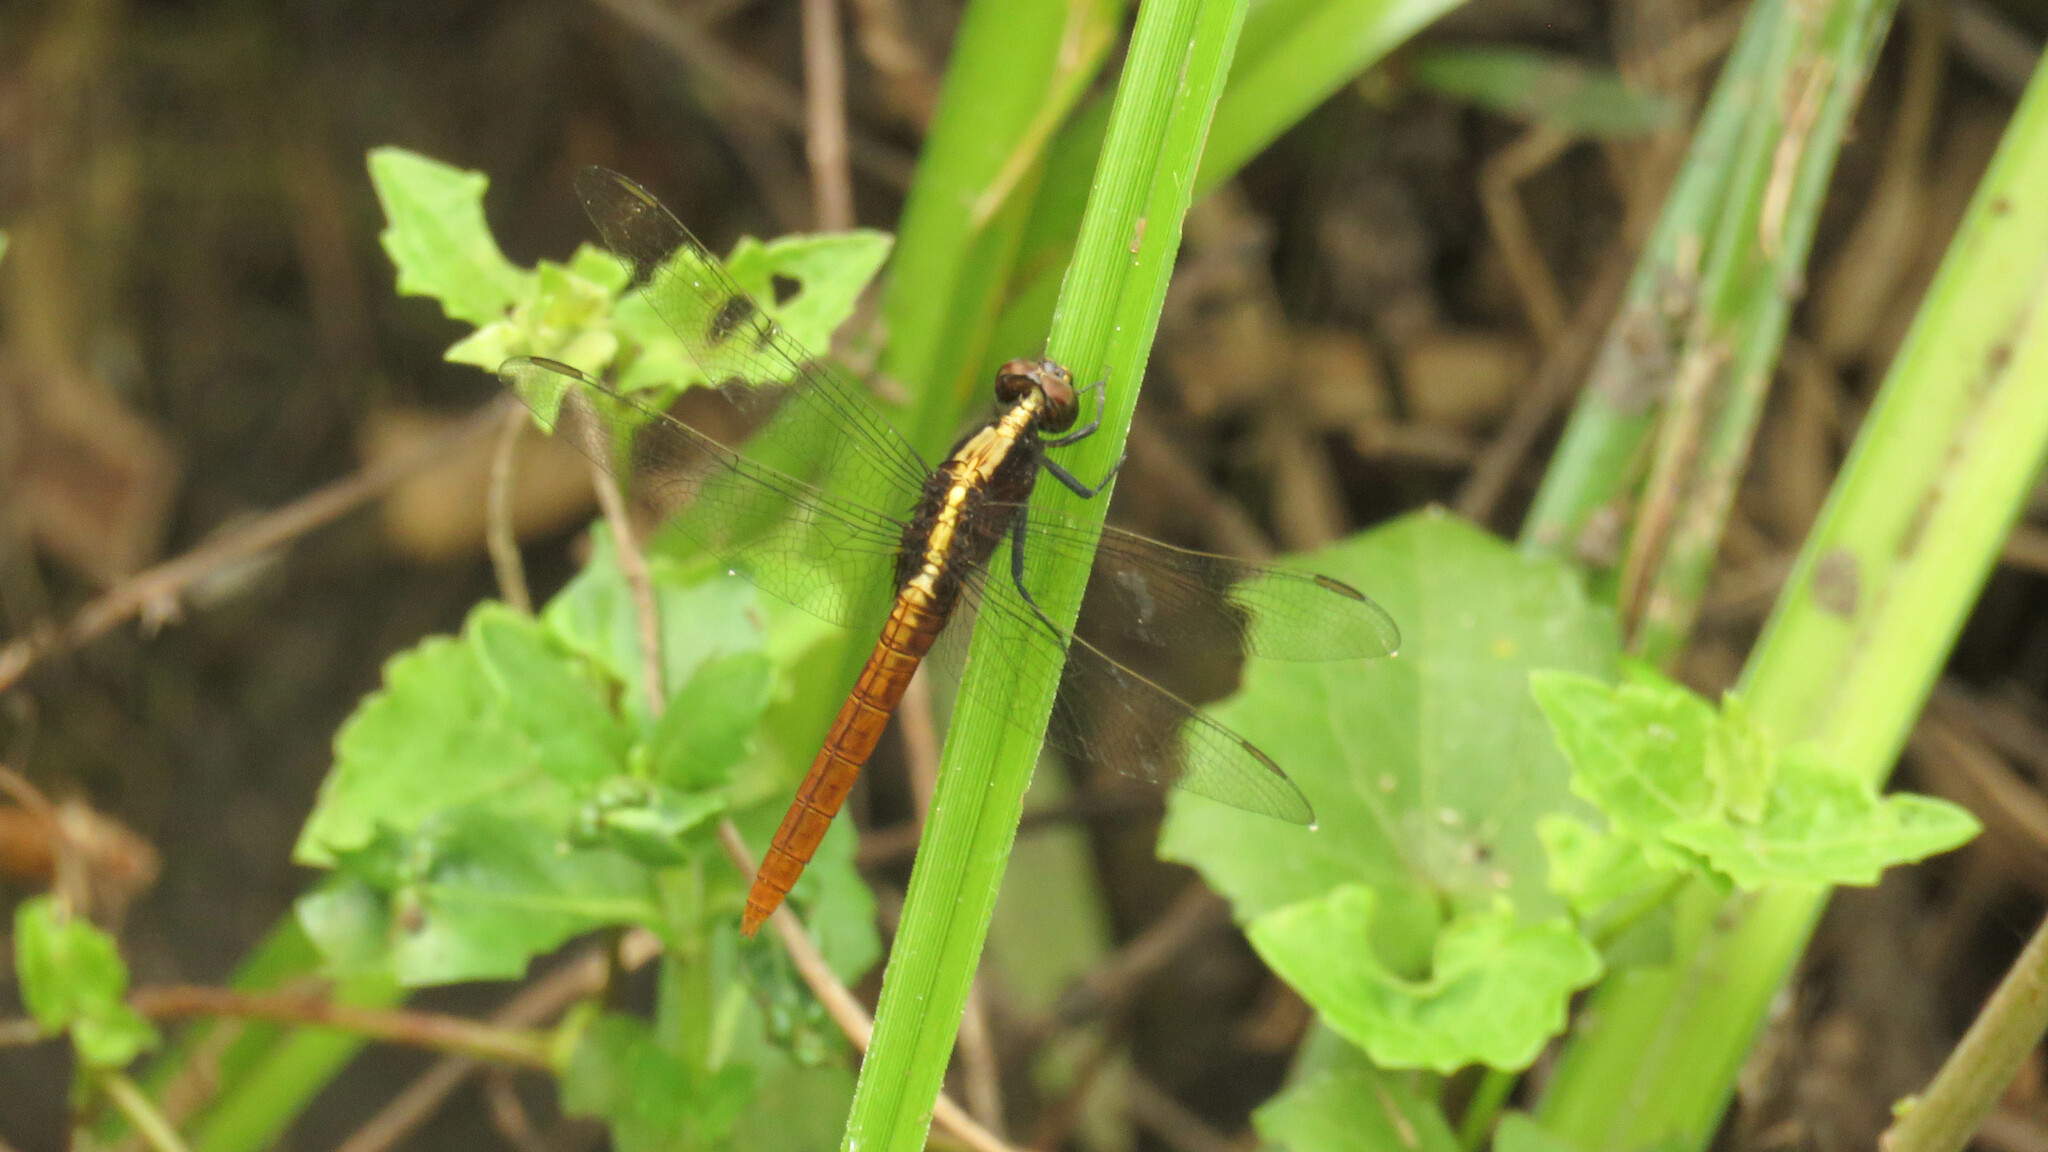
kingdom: Animalia
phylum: Arthropoda
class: Insecta
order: Odonata
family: Libellulidae
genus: Erythemis
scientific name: Erythemis peruviana
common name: Flame-tailed pondhawk
